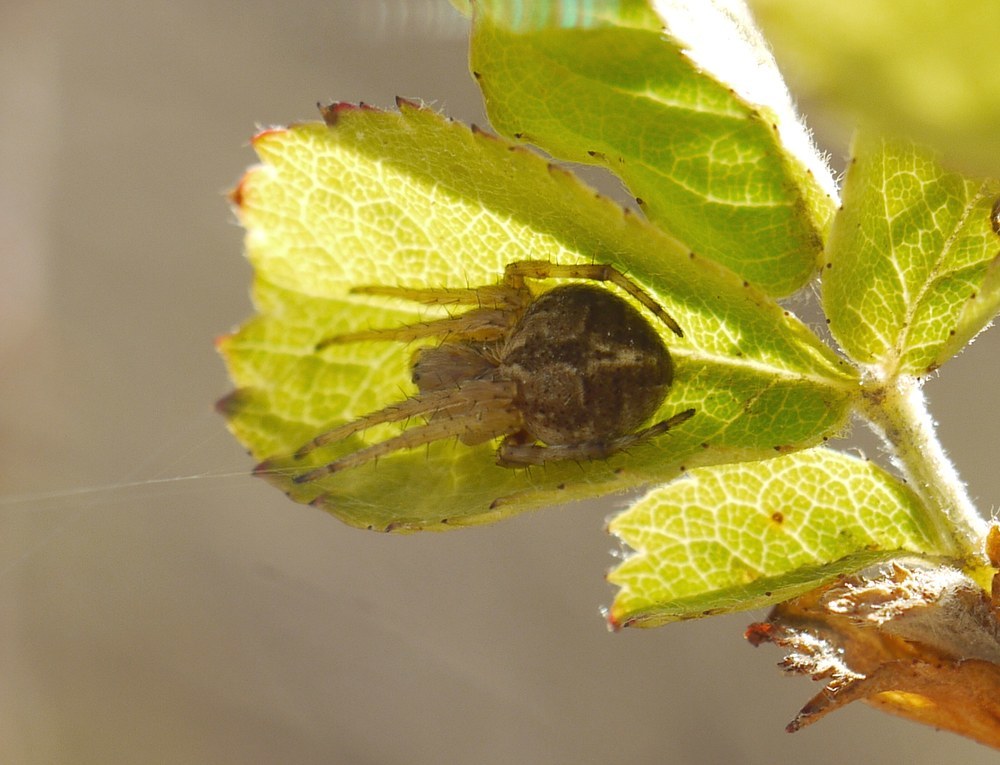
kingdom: Animalia
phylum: Arthropoda
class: Arachnida
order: Araneae
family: Araneidae
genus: Agalenatea
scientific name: Agalenatea redii
